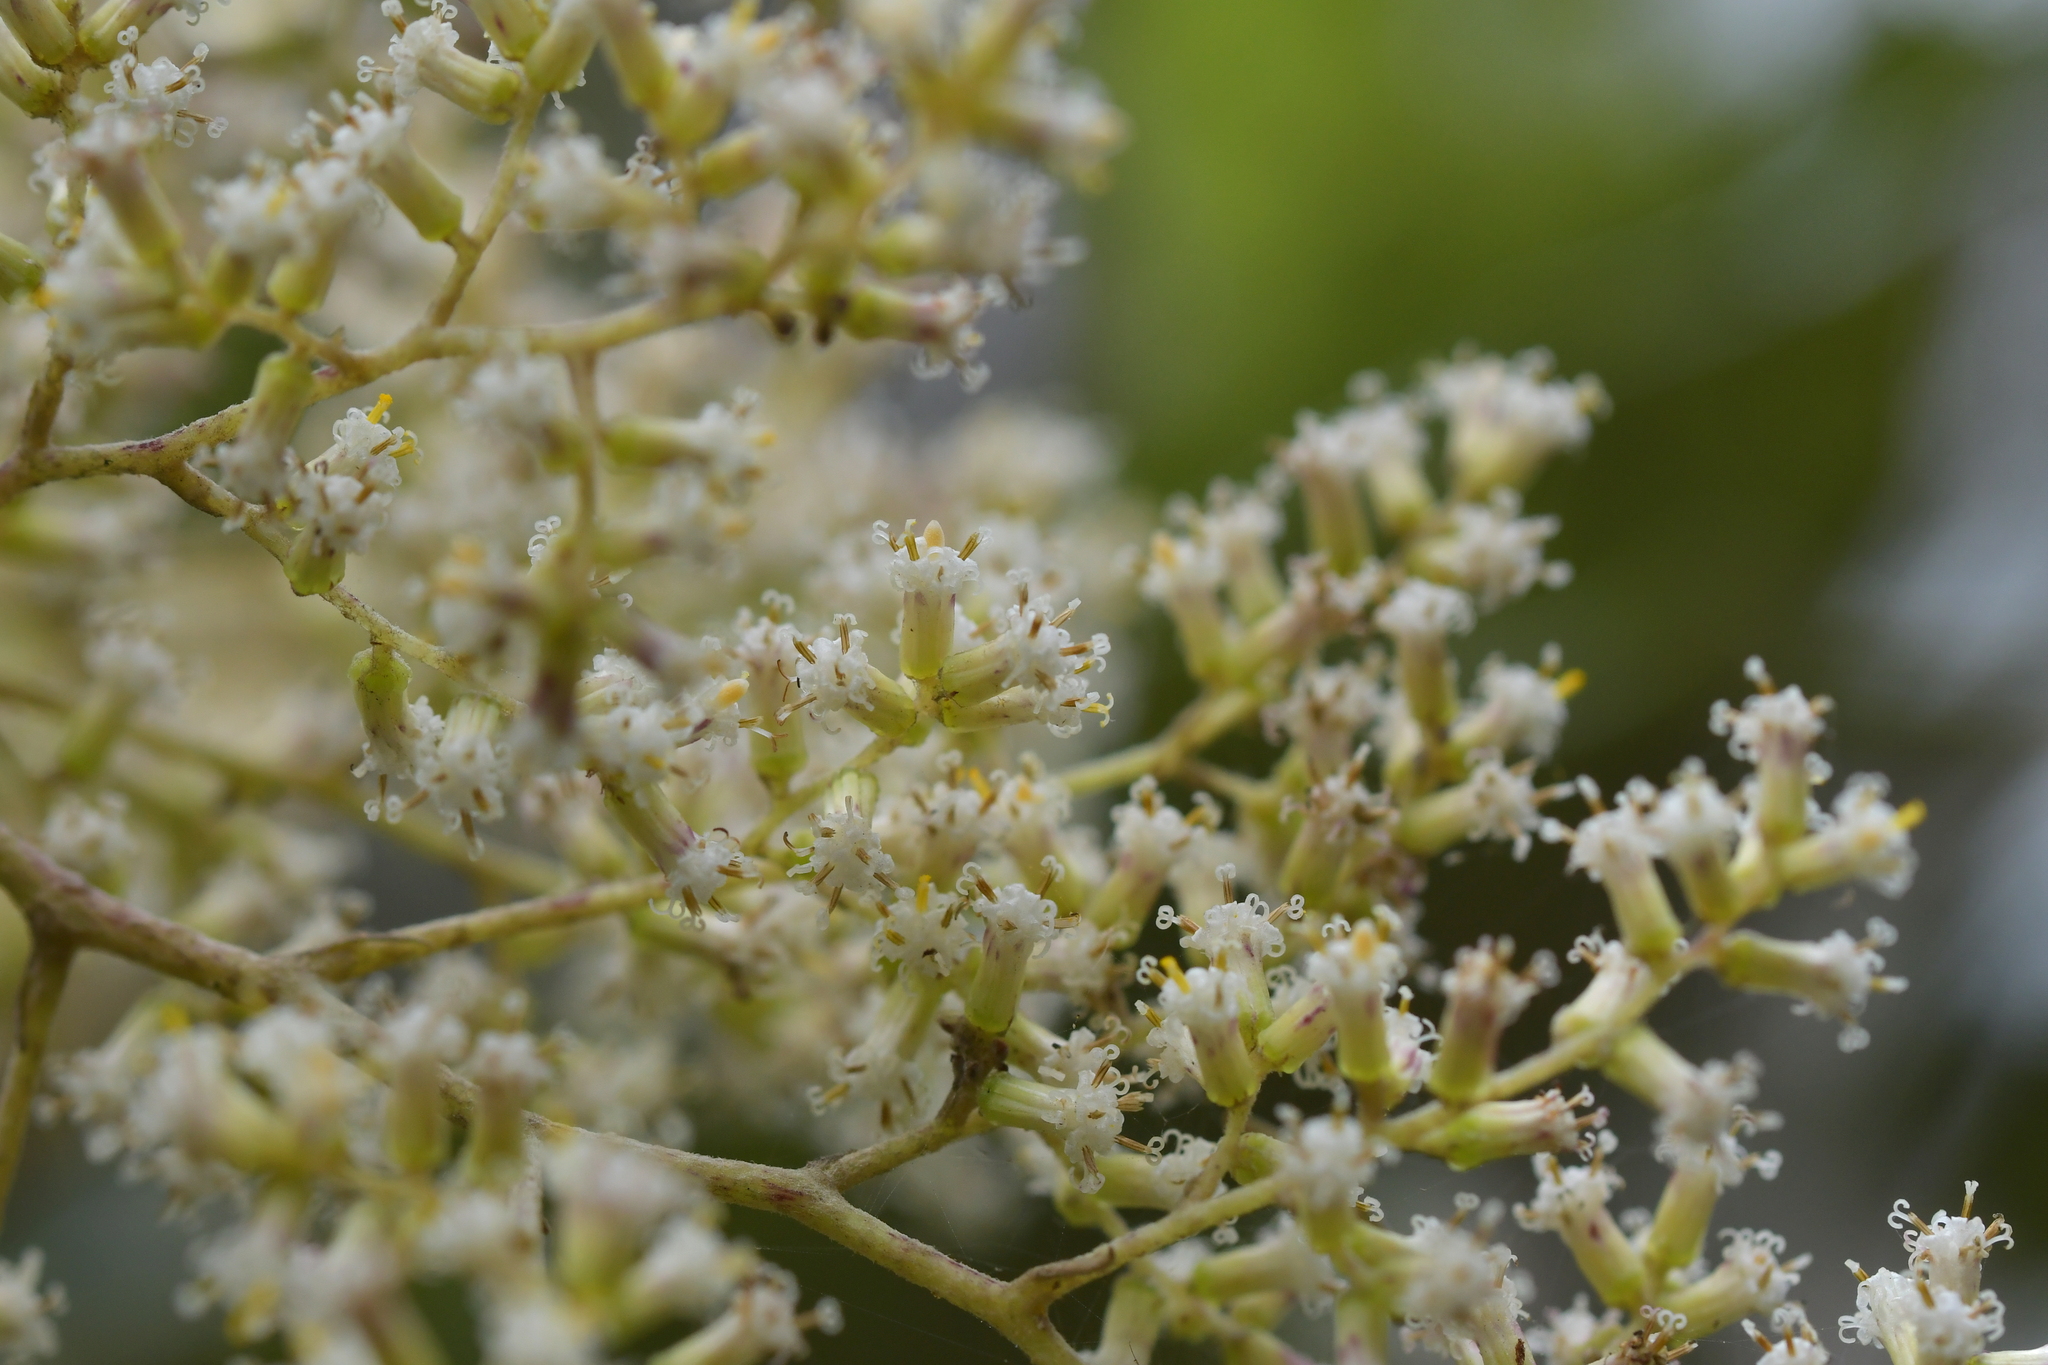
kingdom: Plantae
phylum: Tracheophyta
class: Magnoliopsida
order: Asterales
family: Asteraceae
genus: Brachyglottis
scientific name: Brachyglottis repanda
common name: Hedge ragwort
